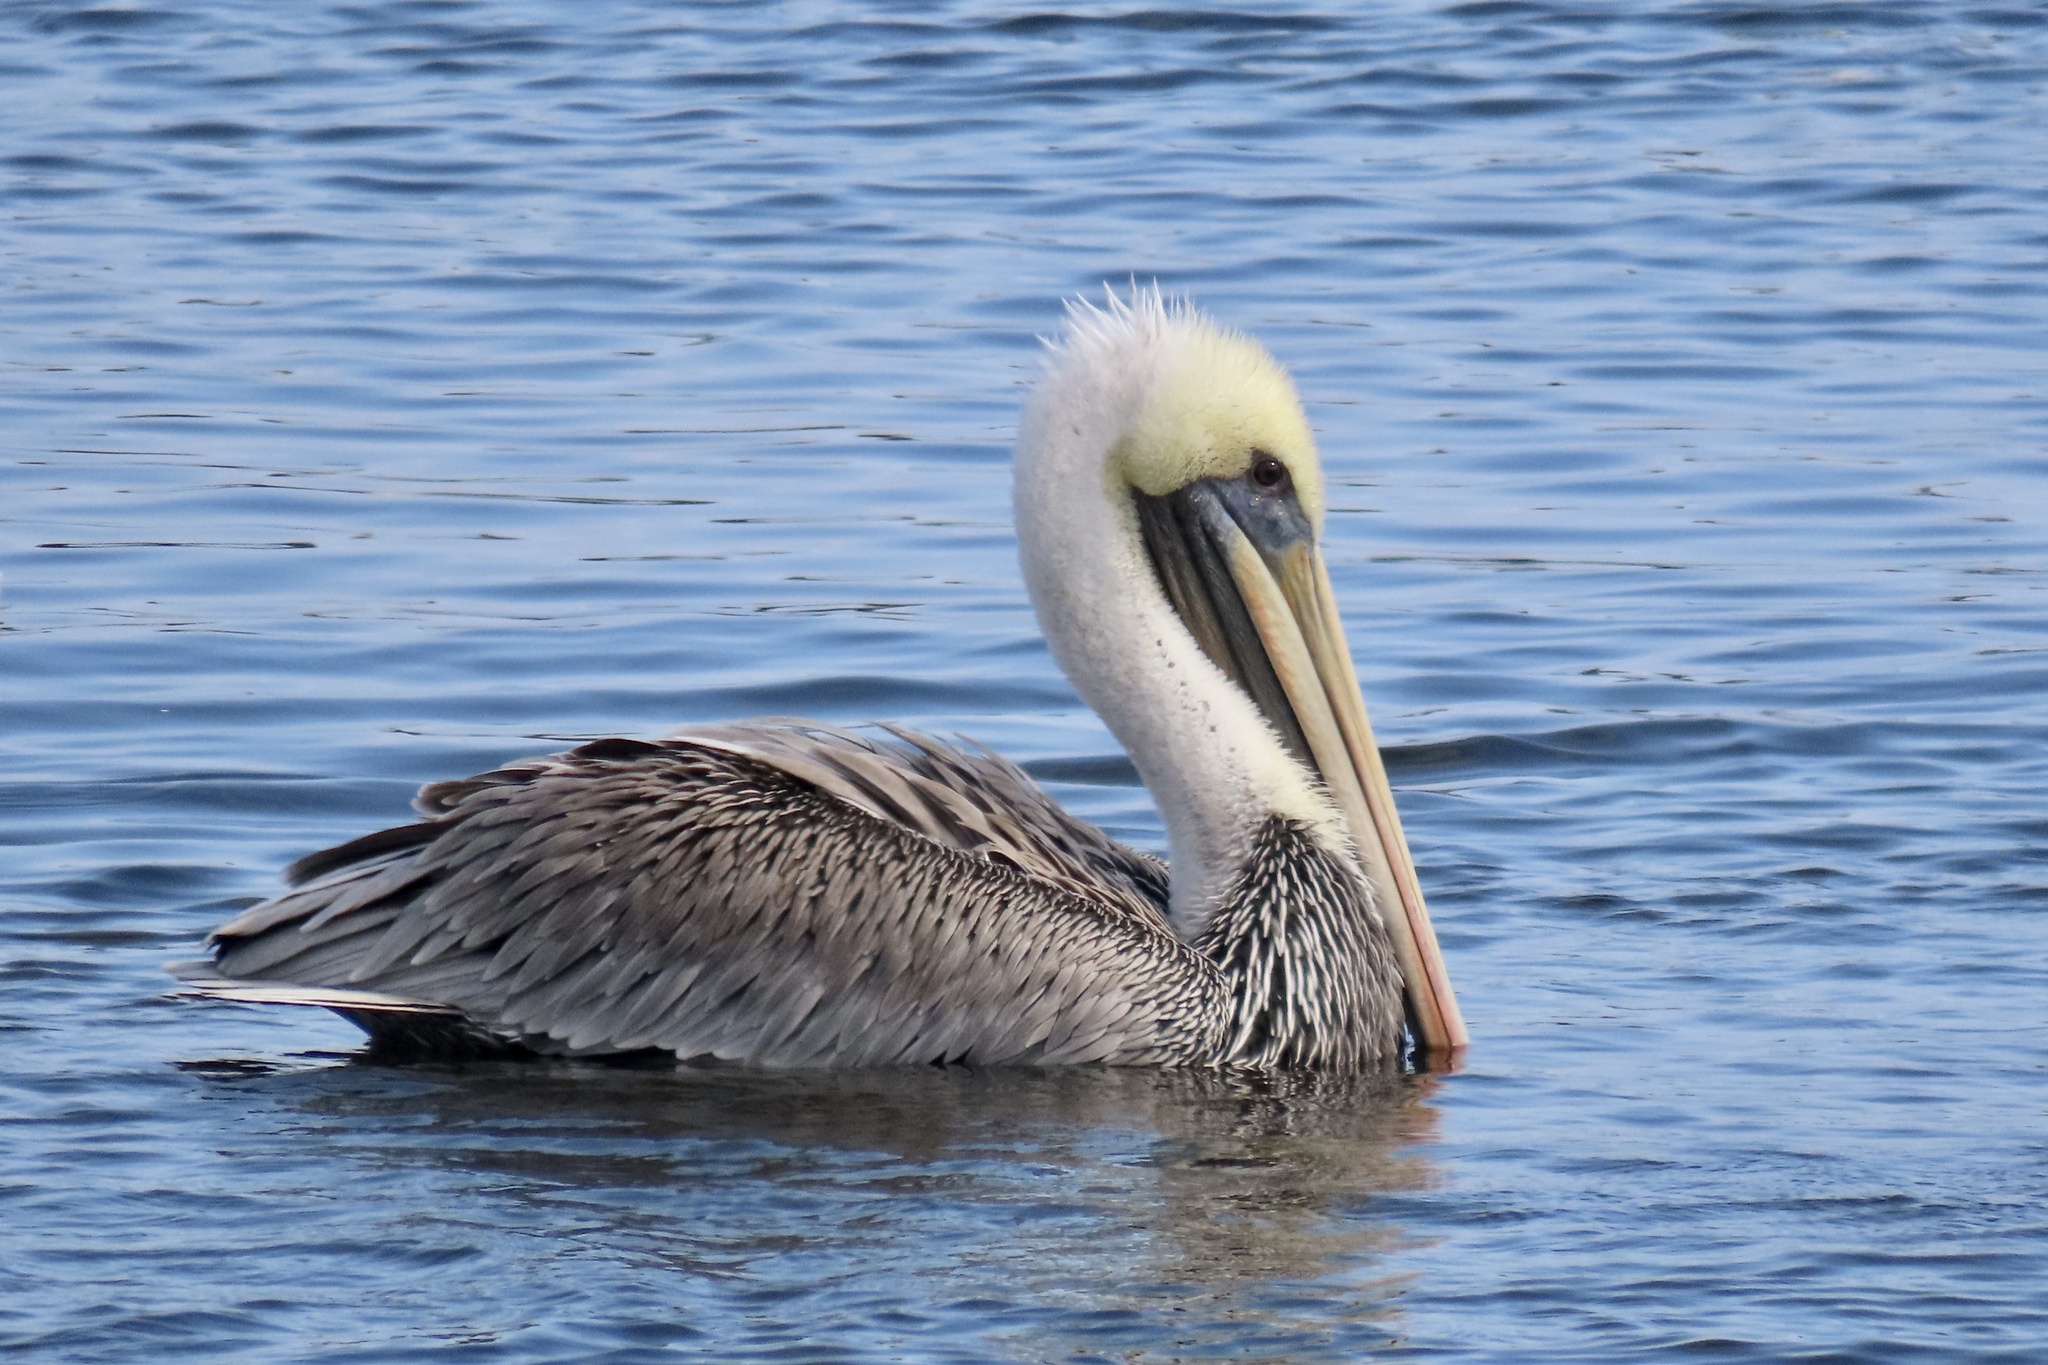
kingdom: Animalia
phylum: Chordata
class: Aves
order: Pelecaniformes
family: Pelecanidae
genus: Pelecanus
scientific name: Pelecanus occidentalis
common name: Brown pelican
